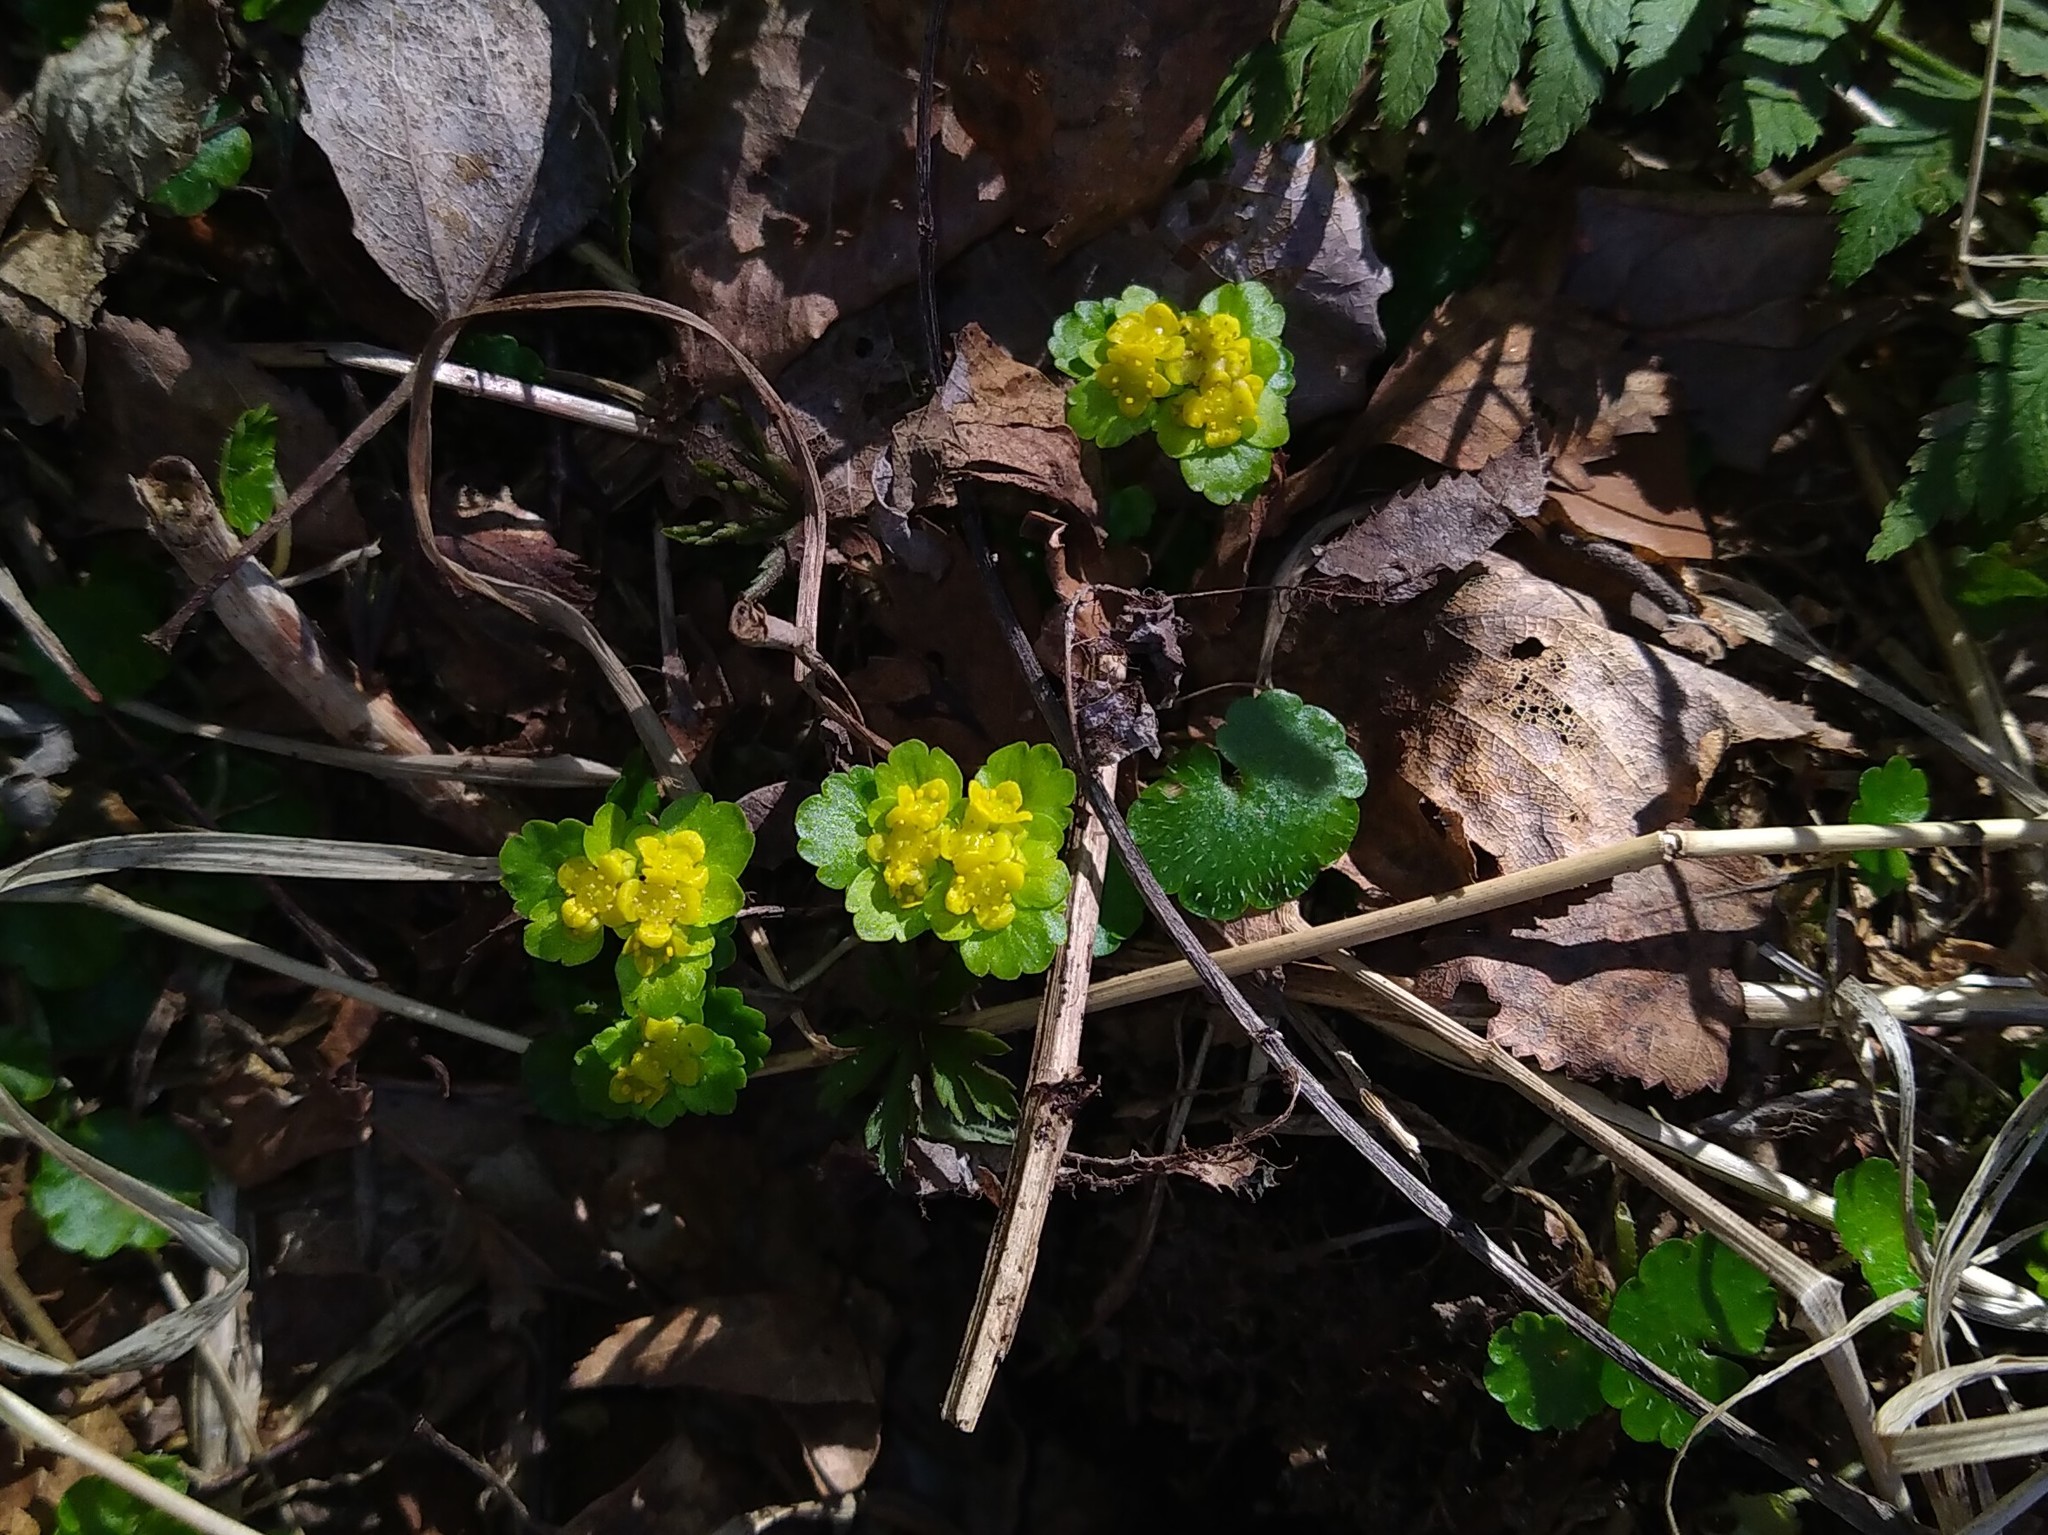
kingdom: Plantae
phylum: Tracheophyta
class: Magnoliopsida
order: Saxifragales
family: Saxifragaceae
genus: Chrysosplenium
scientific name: Chrysosplenium alternifolium
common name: Alternate-leaved golden-saxifrage
